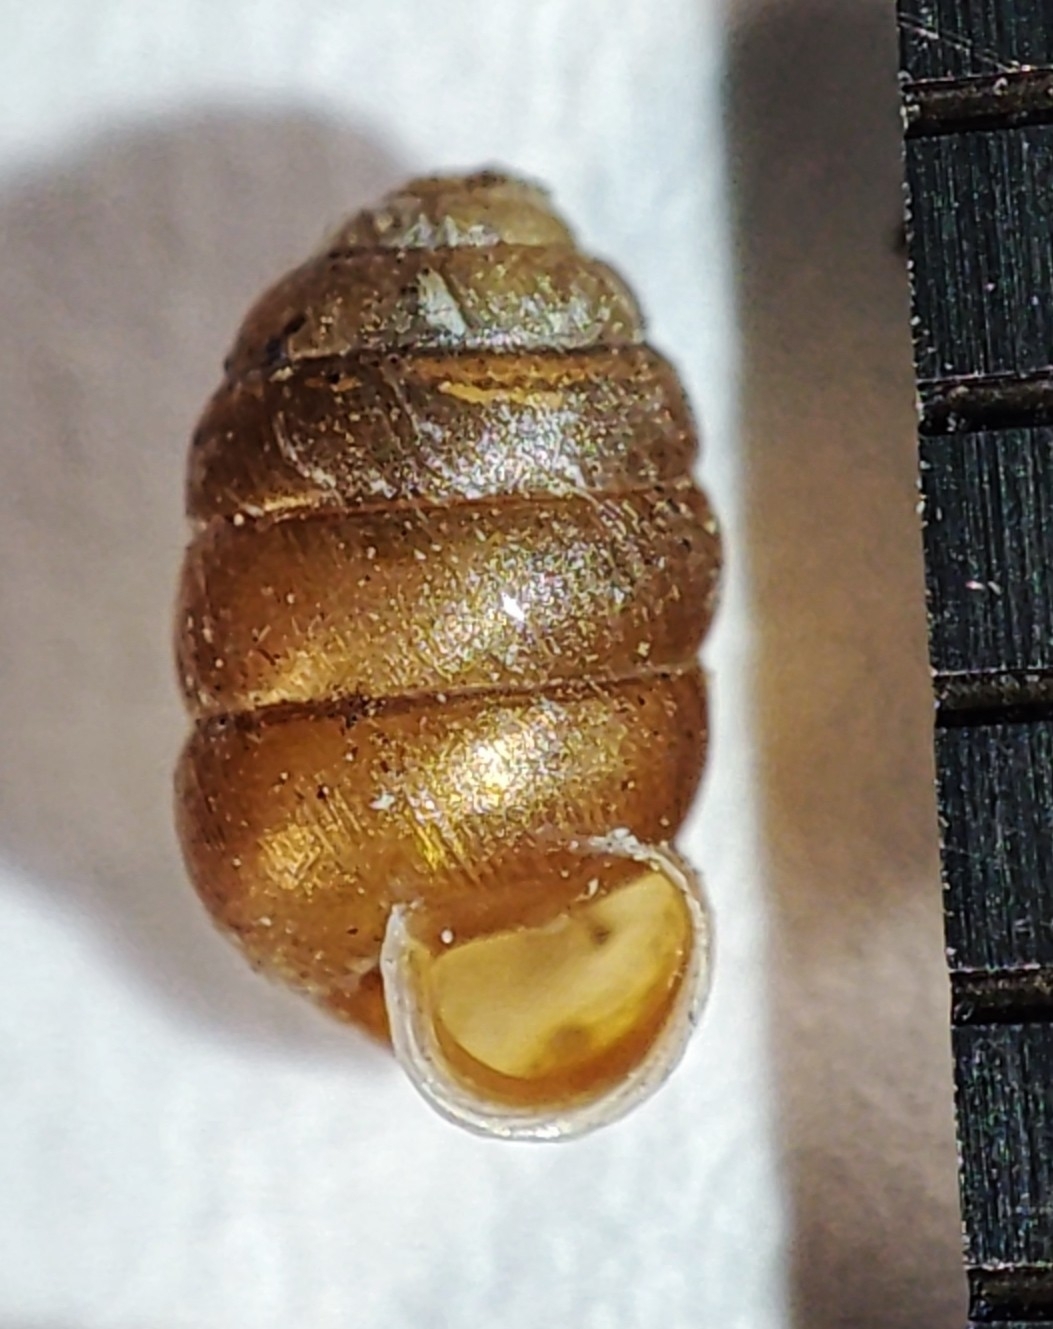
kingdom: Animalia
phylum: Mollusca
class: Gastropoda
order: Stylommatophora
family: Pupillidae
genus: Pupilla
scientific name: Pupilla alpicola
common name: Alpine moss snail
